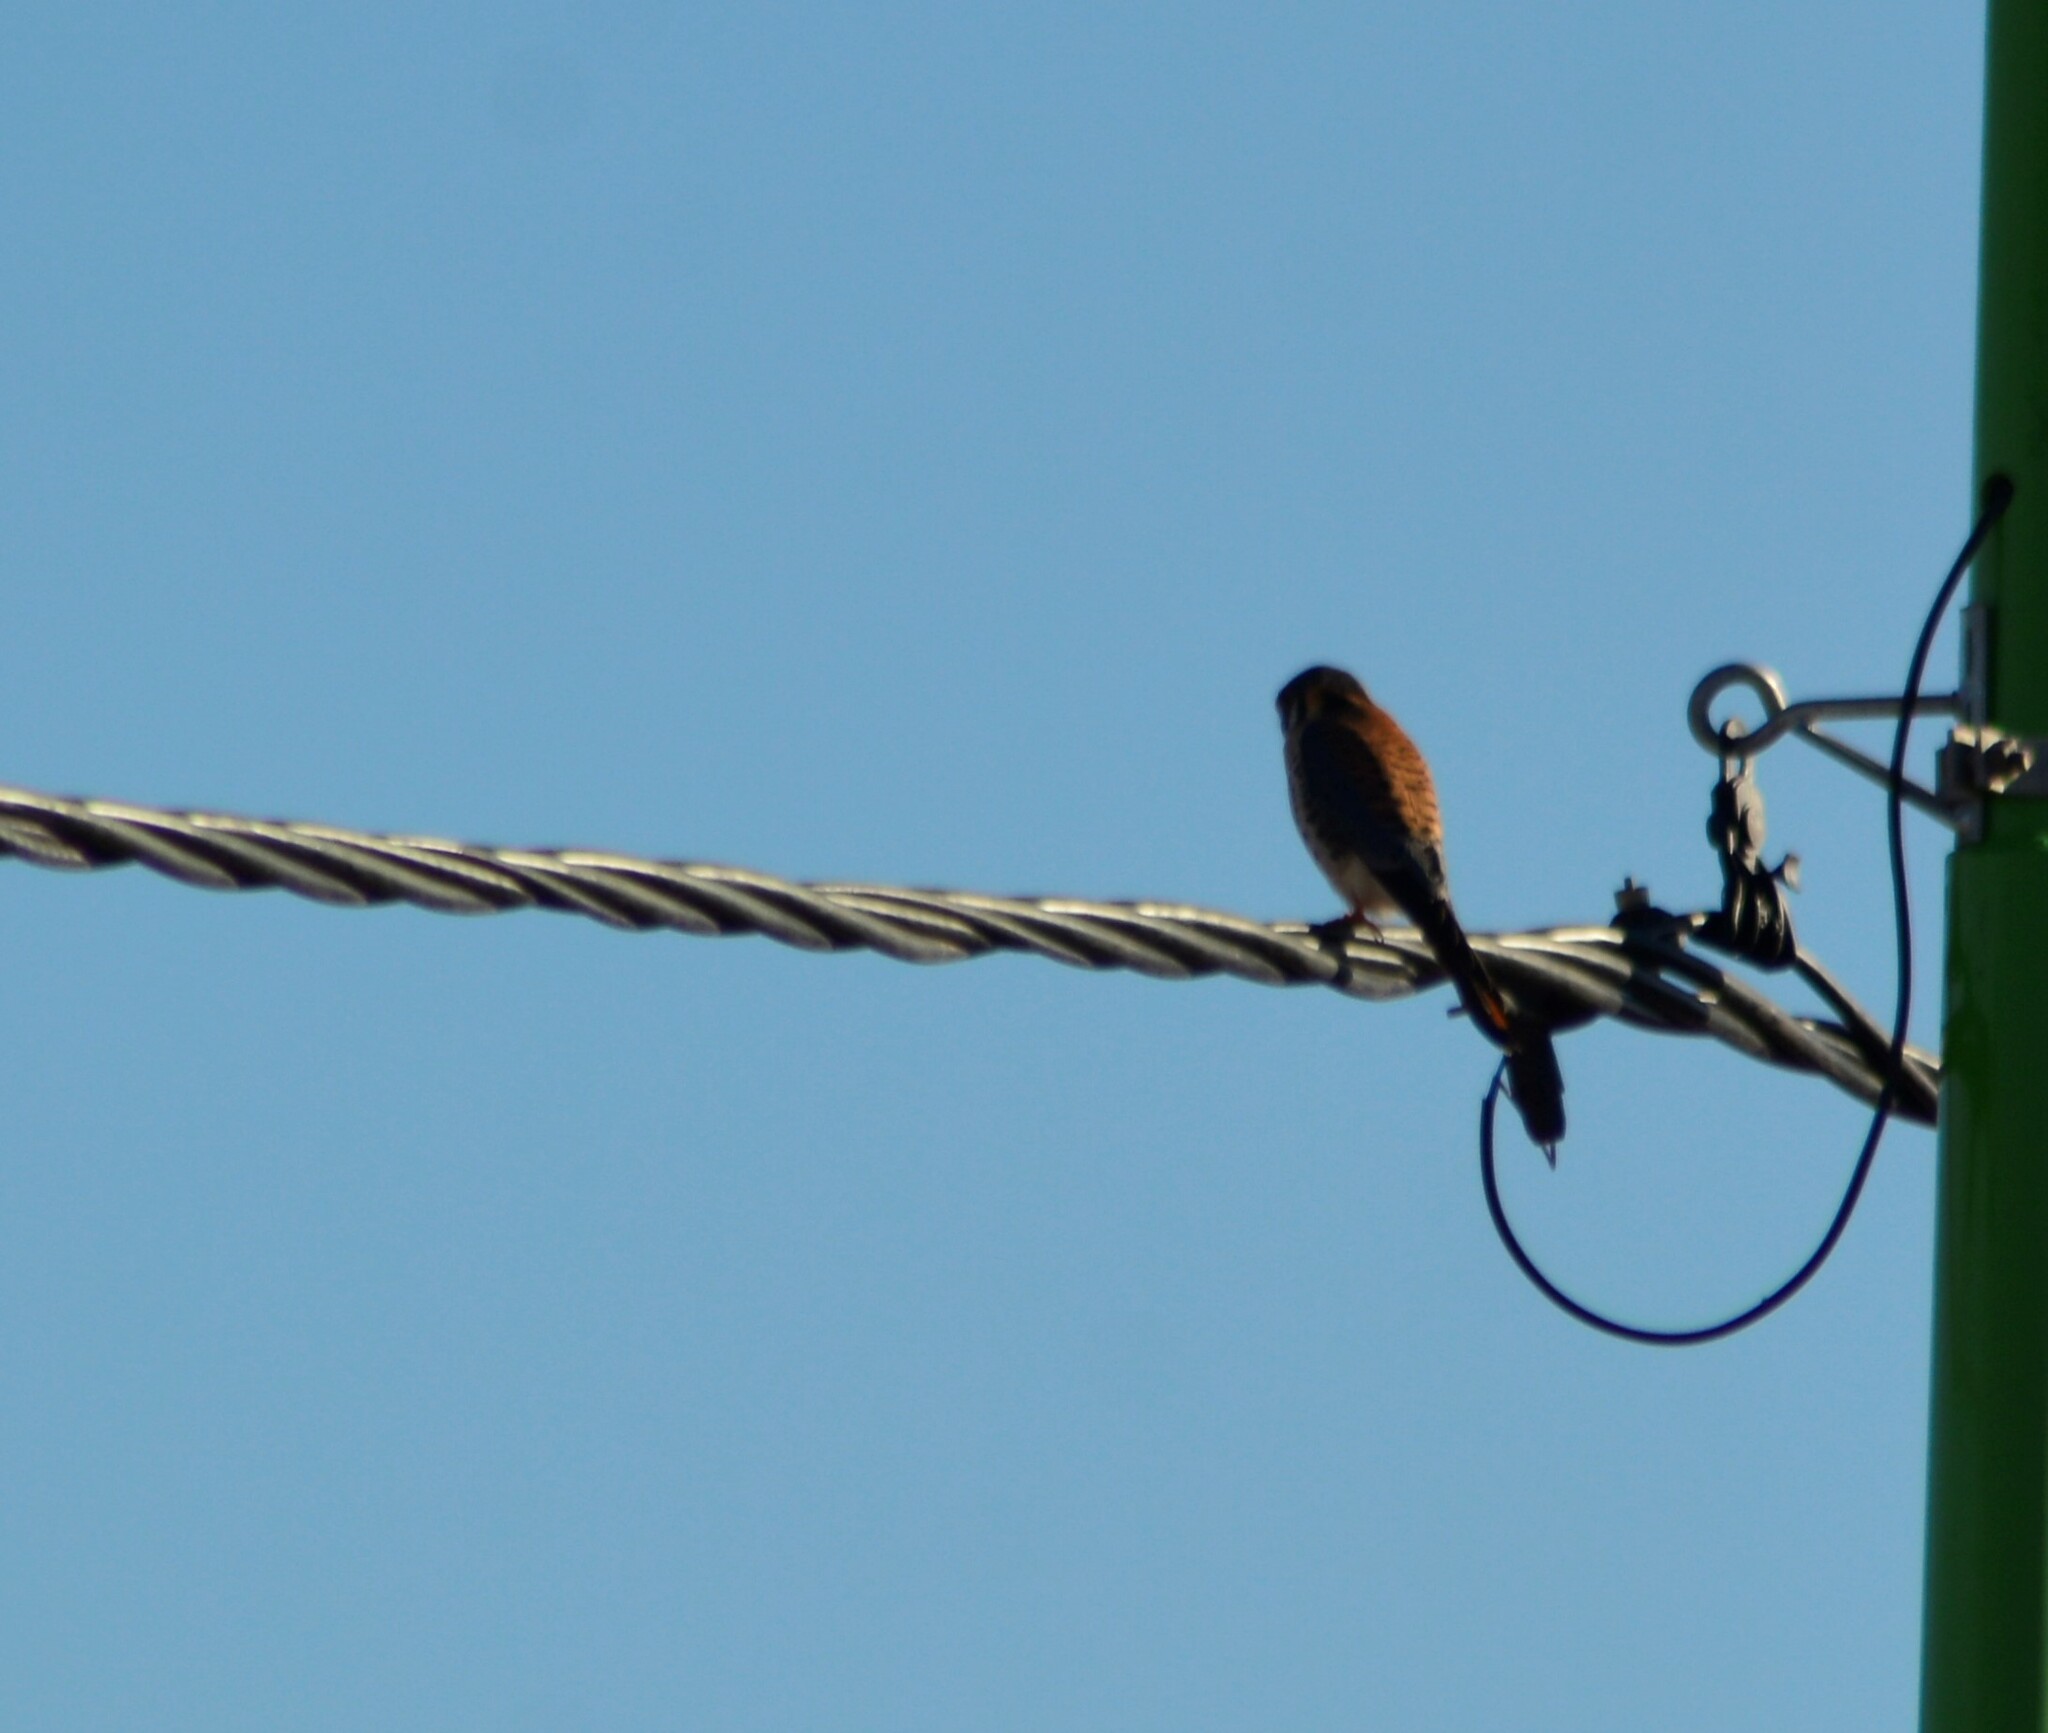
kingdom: Animalia
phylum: Chordata
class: Aves
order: Falconiformes
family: Falconidae
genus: Falco
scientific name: Falco sparverius
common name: American kestrel
